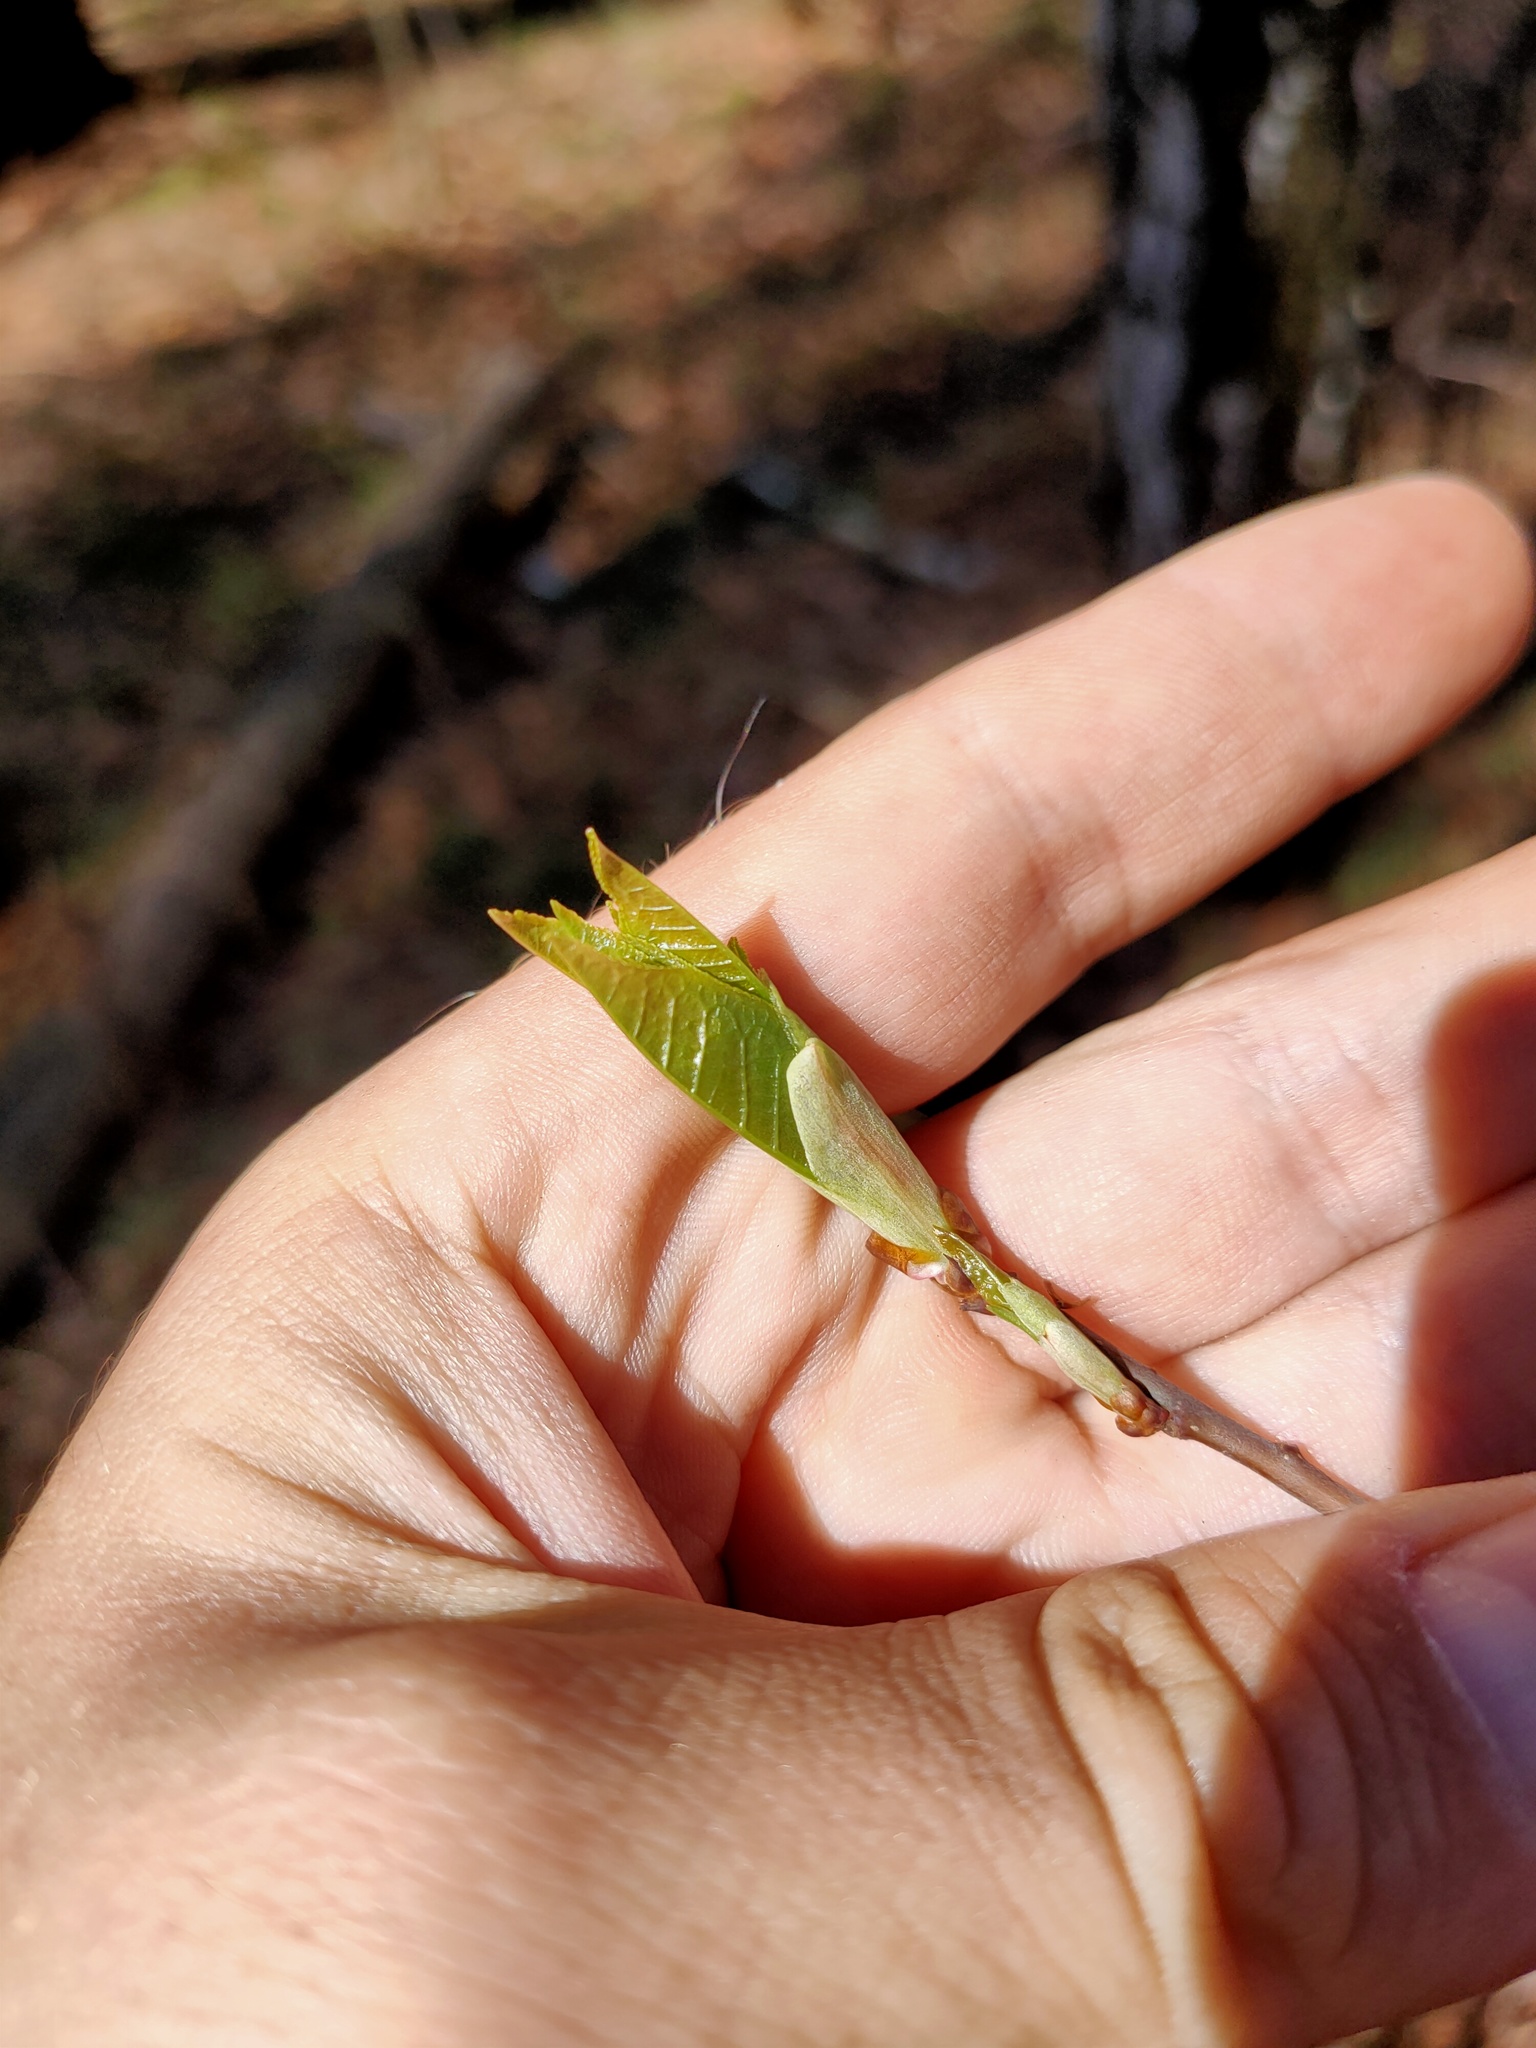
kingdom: Plantae
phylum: Tracheophyta
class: Magnoliopsida
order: Rosales
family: Rosaceae
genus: Prunus
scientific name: Prunus padus
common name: Bird cherry
